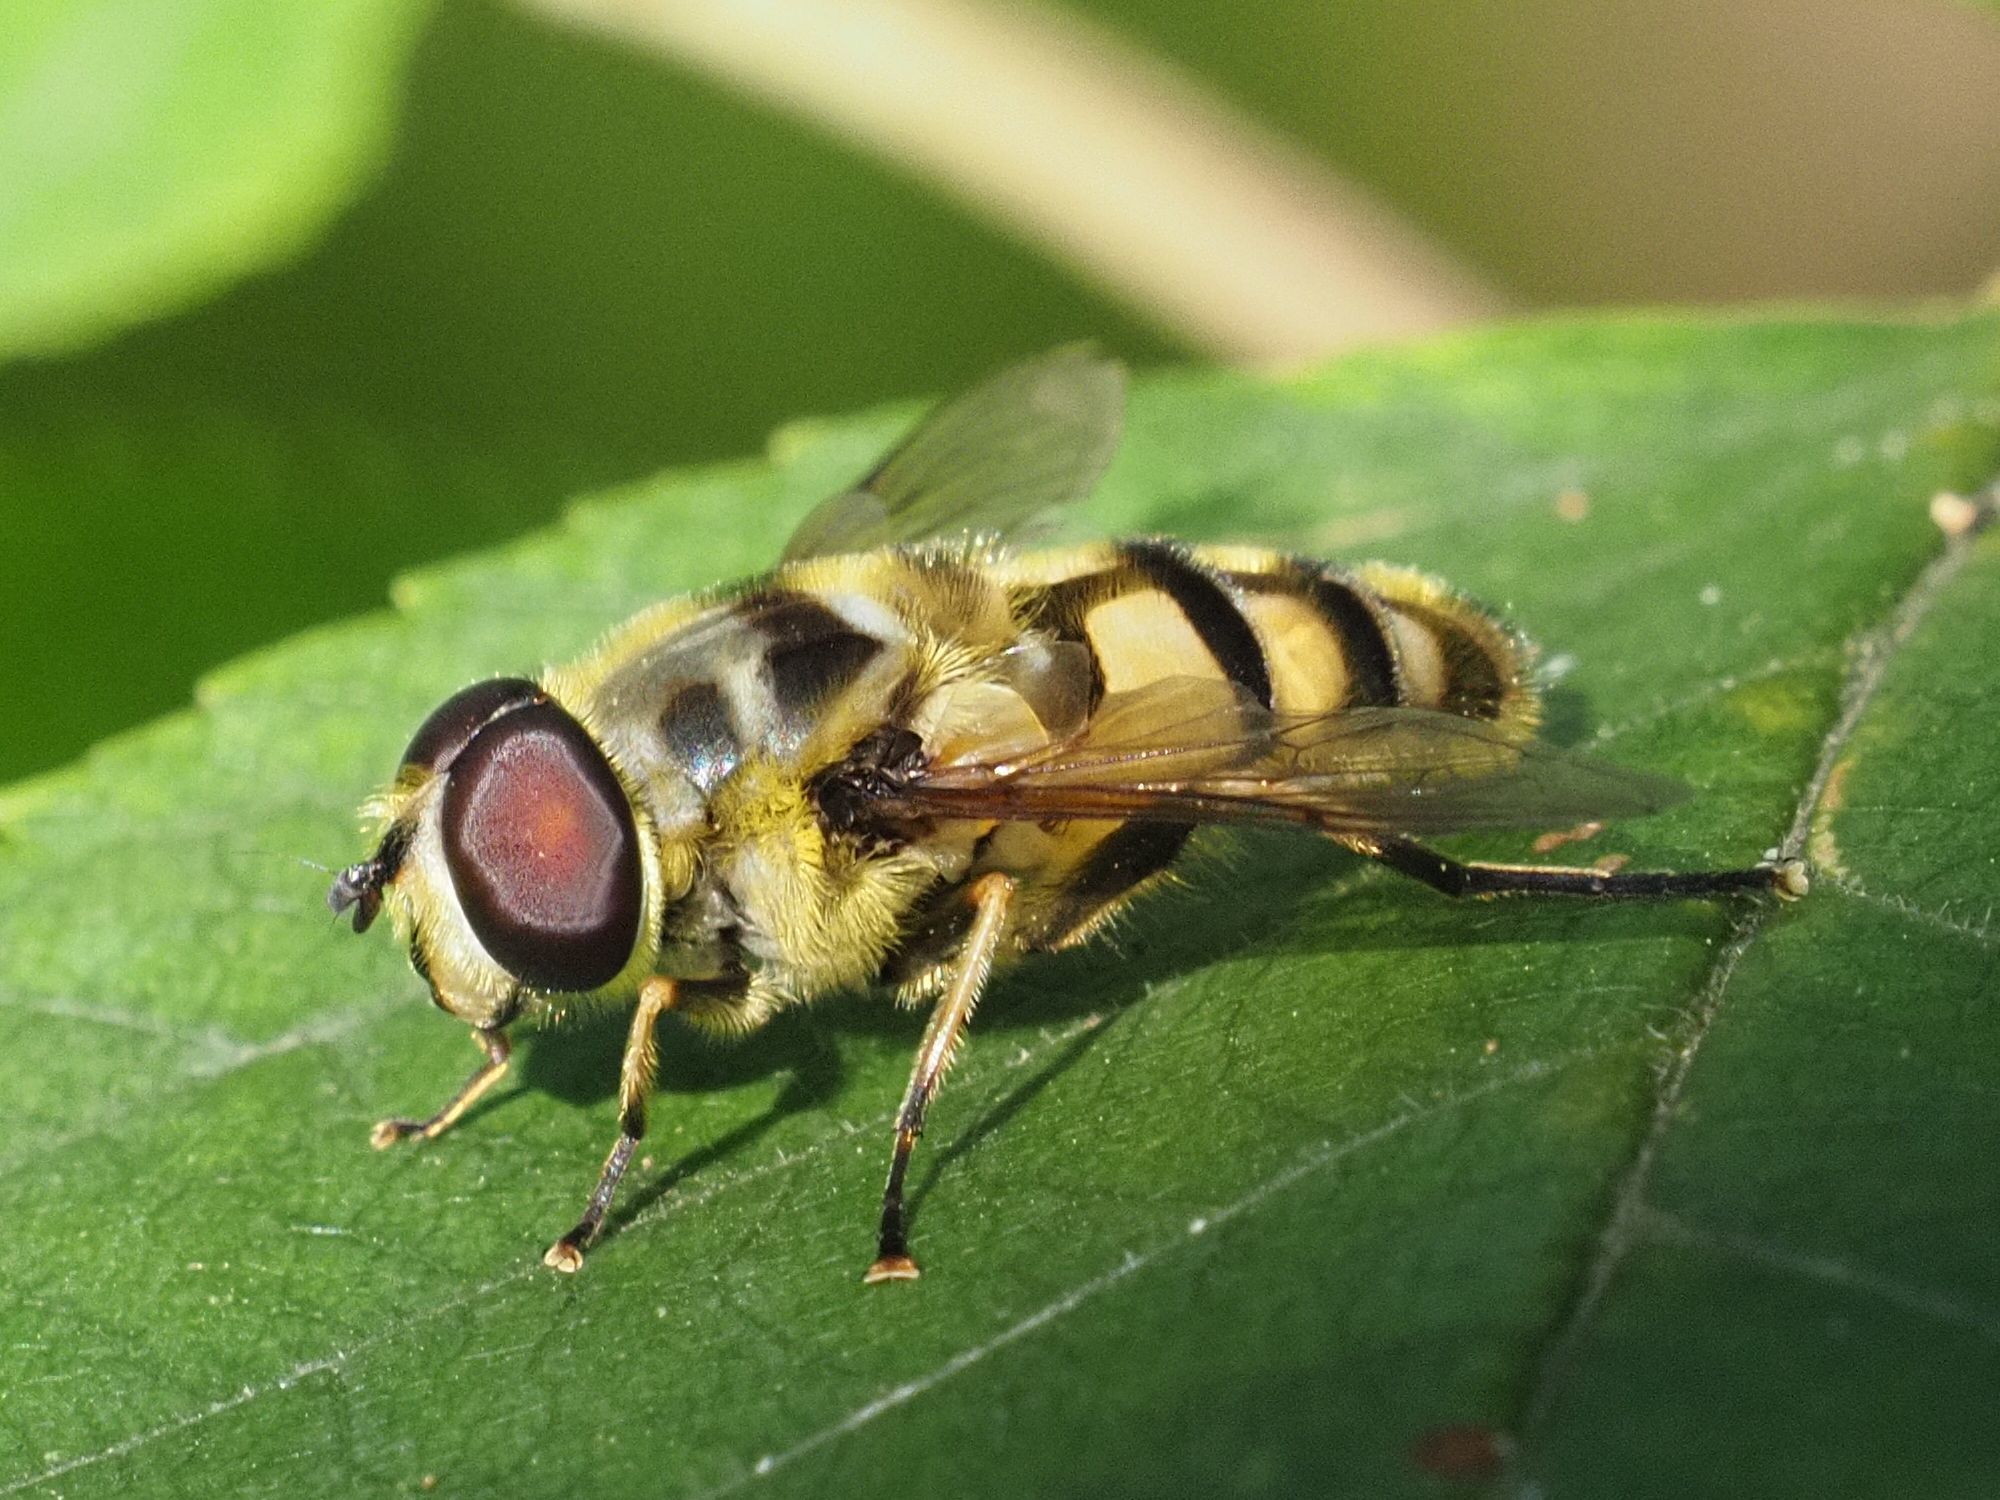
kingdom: Animalia
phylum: Arthropoda
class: Insecta
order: Diptera
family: Syrphidae
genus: Myathropa
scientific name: Myathropa florea
